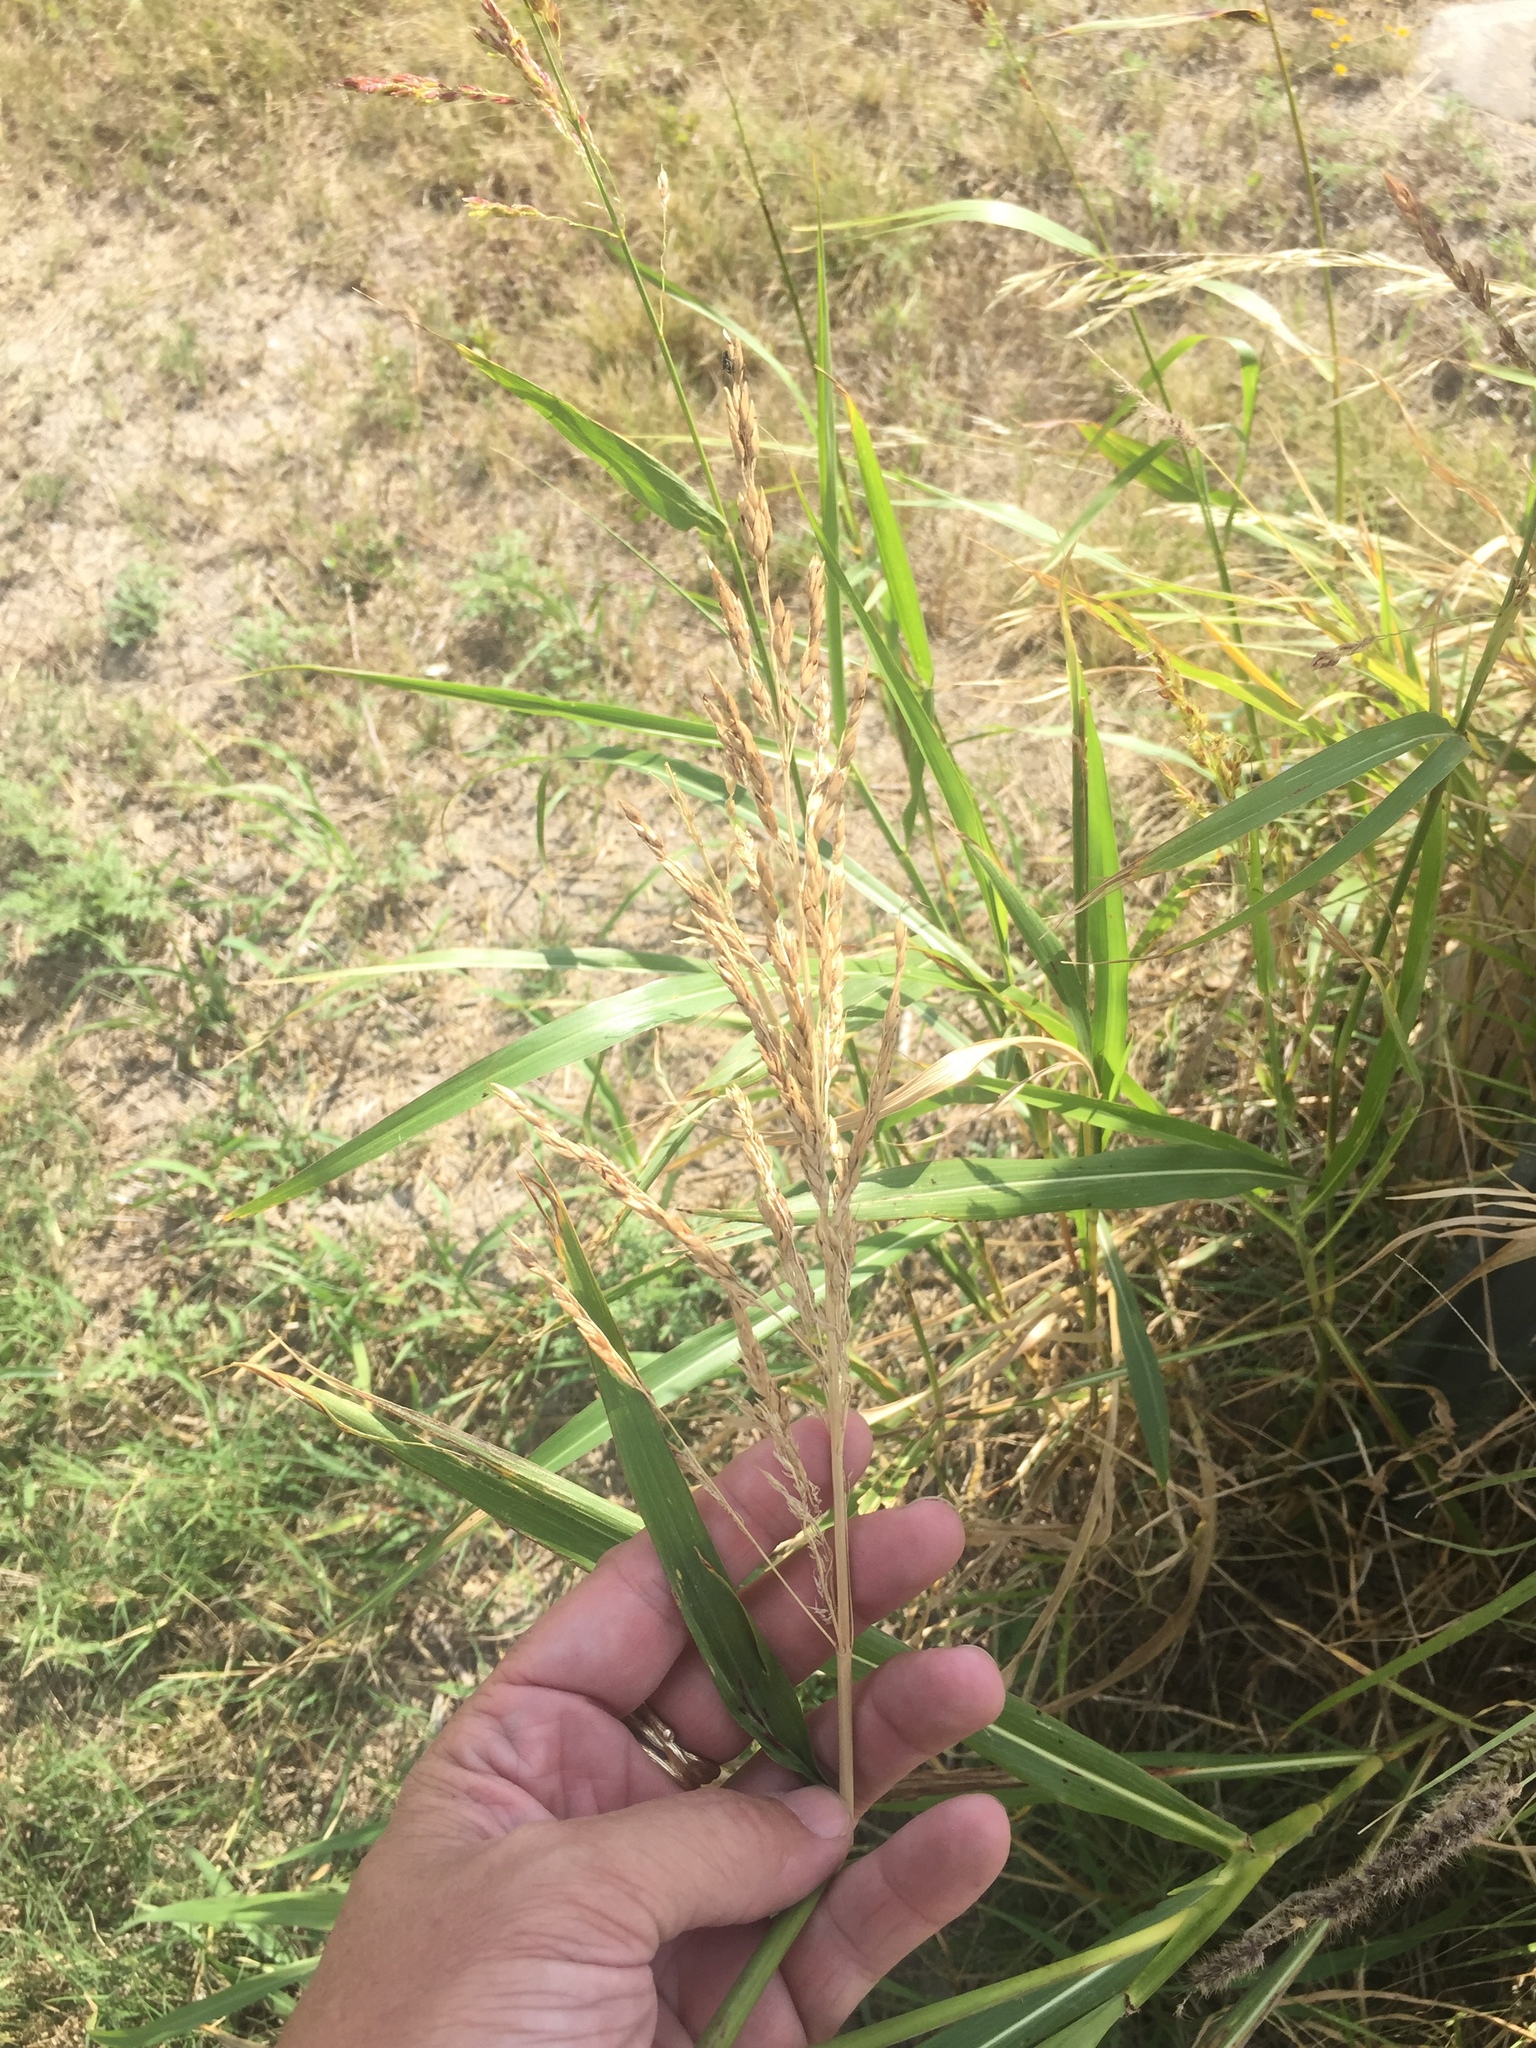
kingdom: Plantae
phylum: Tracheophyta
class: Liliopsida
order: Poales
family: Poaceae
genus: Sorghum
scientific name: Sorghum halepense
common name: Johnson-grass
